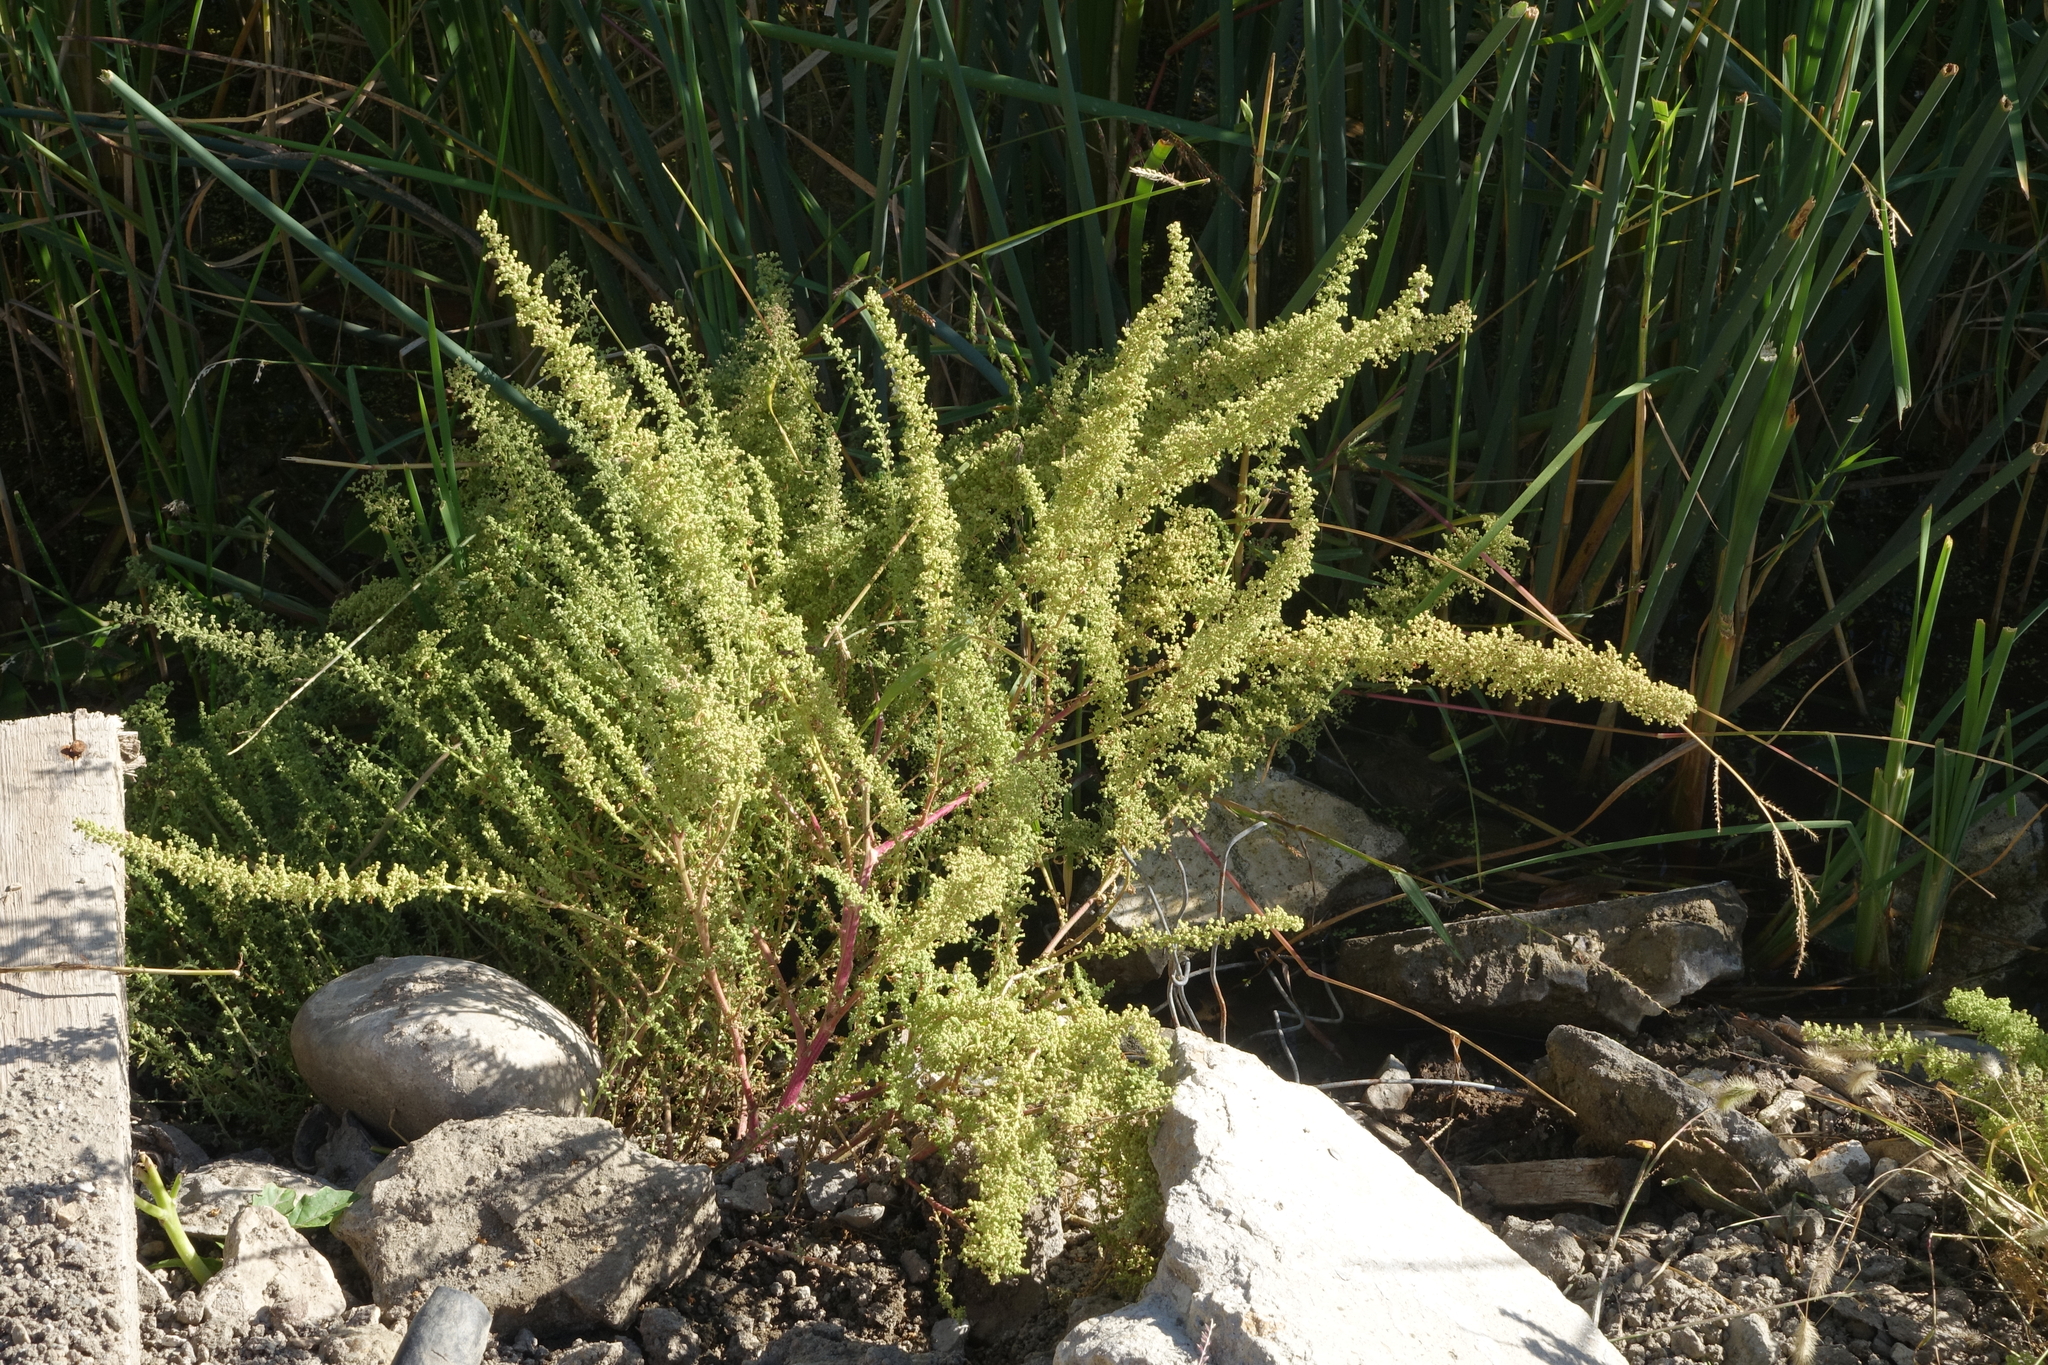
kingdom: Plantae
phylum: Tracheophyta
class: Magnoliopsida
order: Caryophyllales
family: Amaranthaceae
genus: Dysphania
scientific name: Dysphania botrys
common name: Feather-geranium
